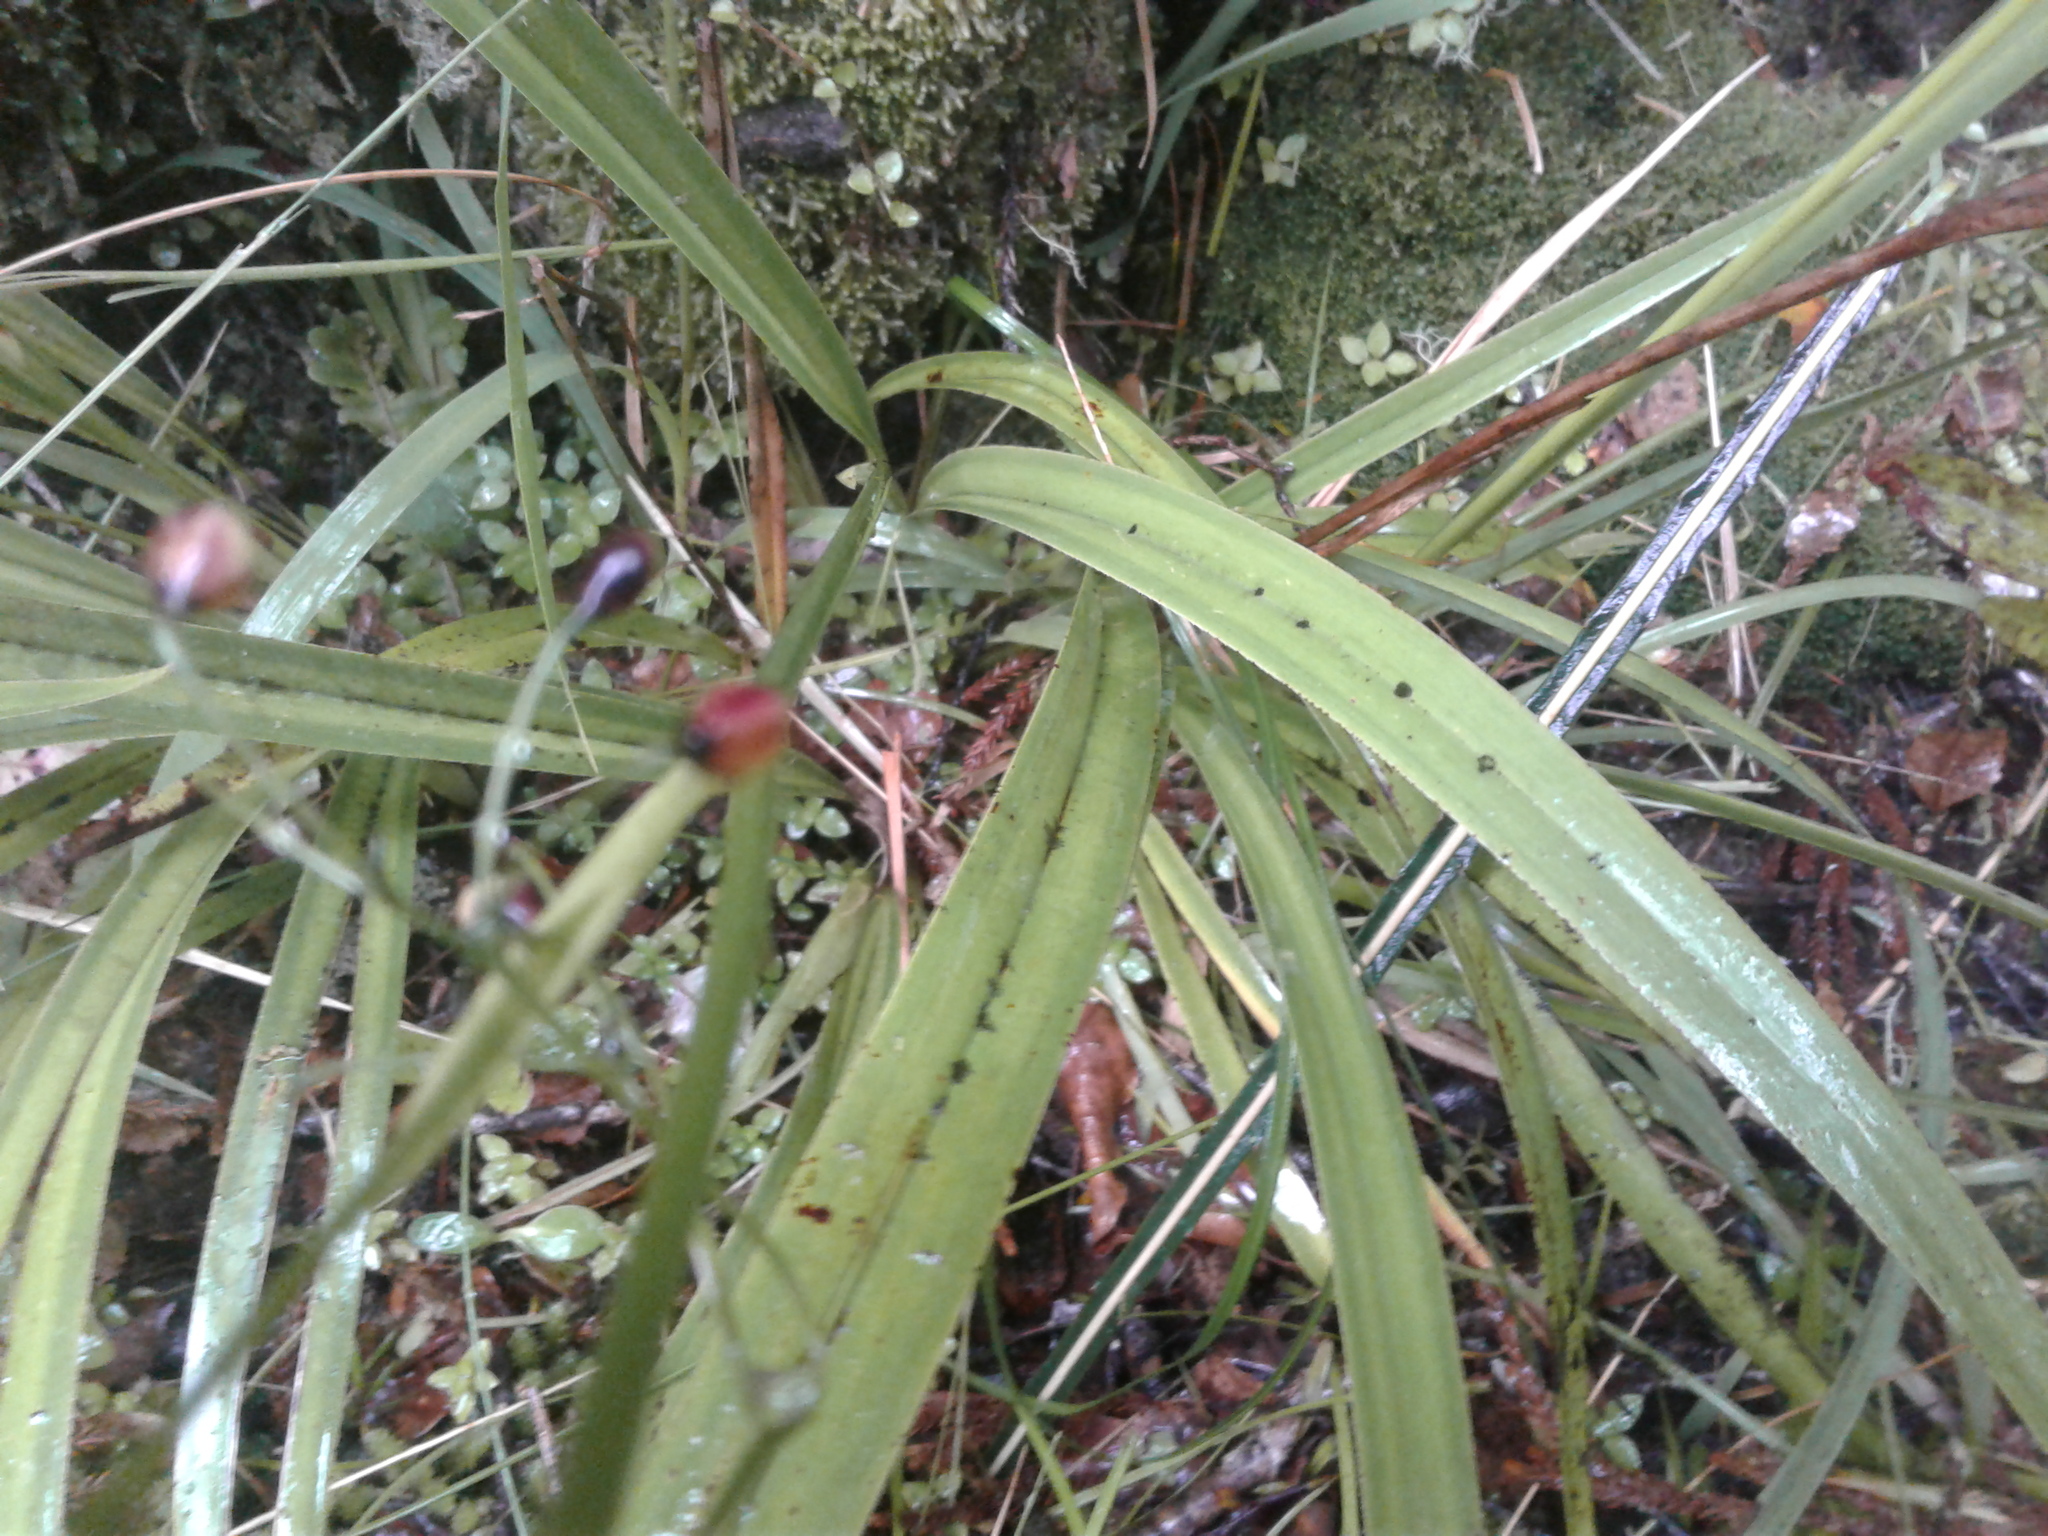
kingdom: Plantae
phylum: Tracheophyta
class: Liliopsida
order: Asparagales
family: Asphodelaceae
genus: Dianella
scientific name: Dianella
